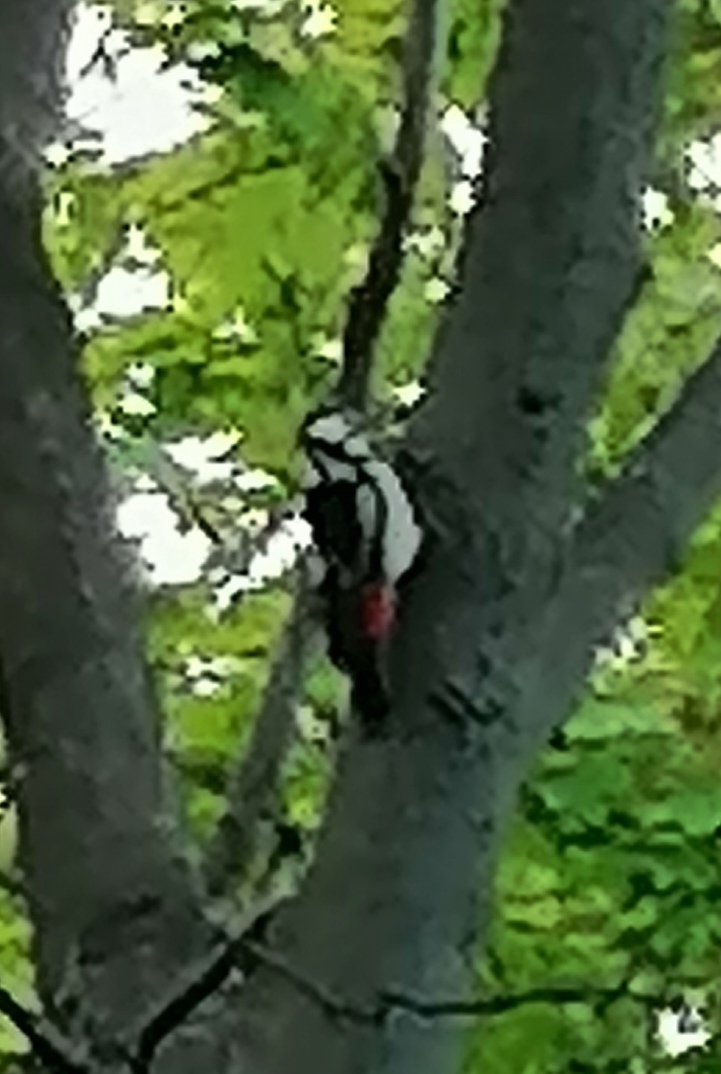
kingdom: Animalia
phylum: Chordata
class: Aves
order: Piciformes
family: Picidae
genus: Dendrocopos
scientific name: Dendrocopos major
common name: Great spotted woodpecker
